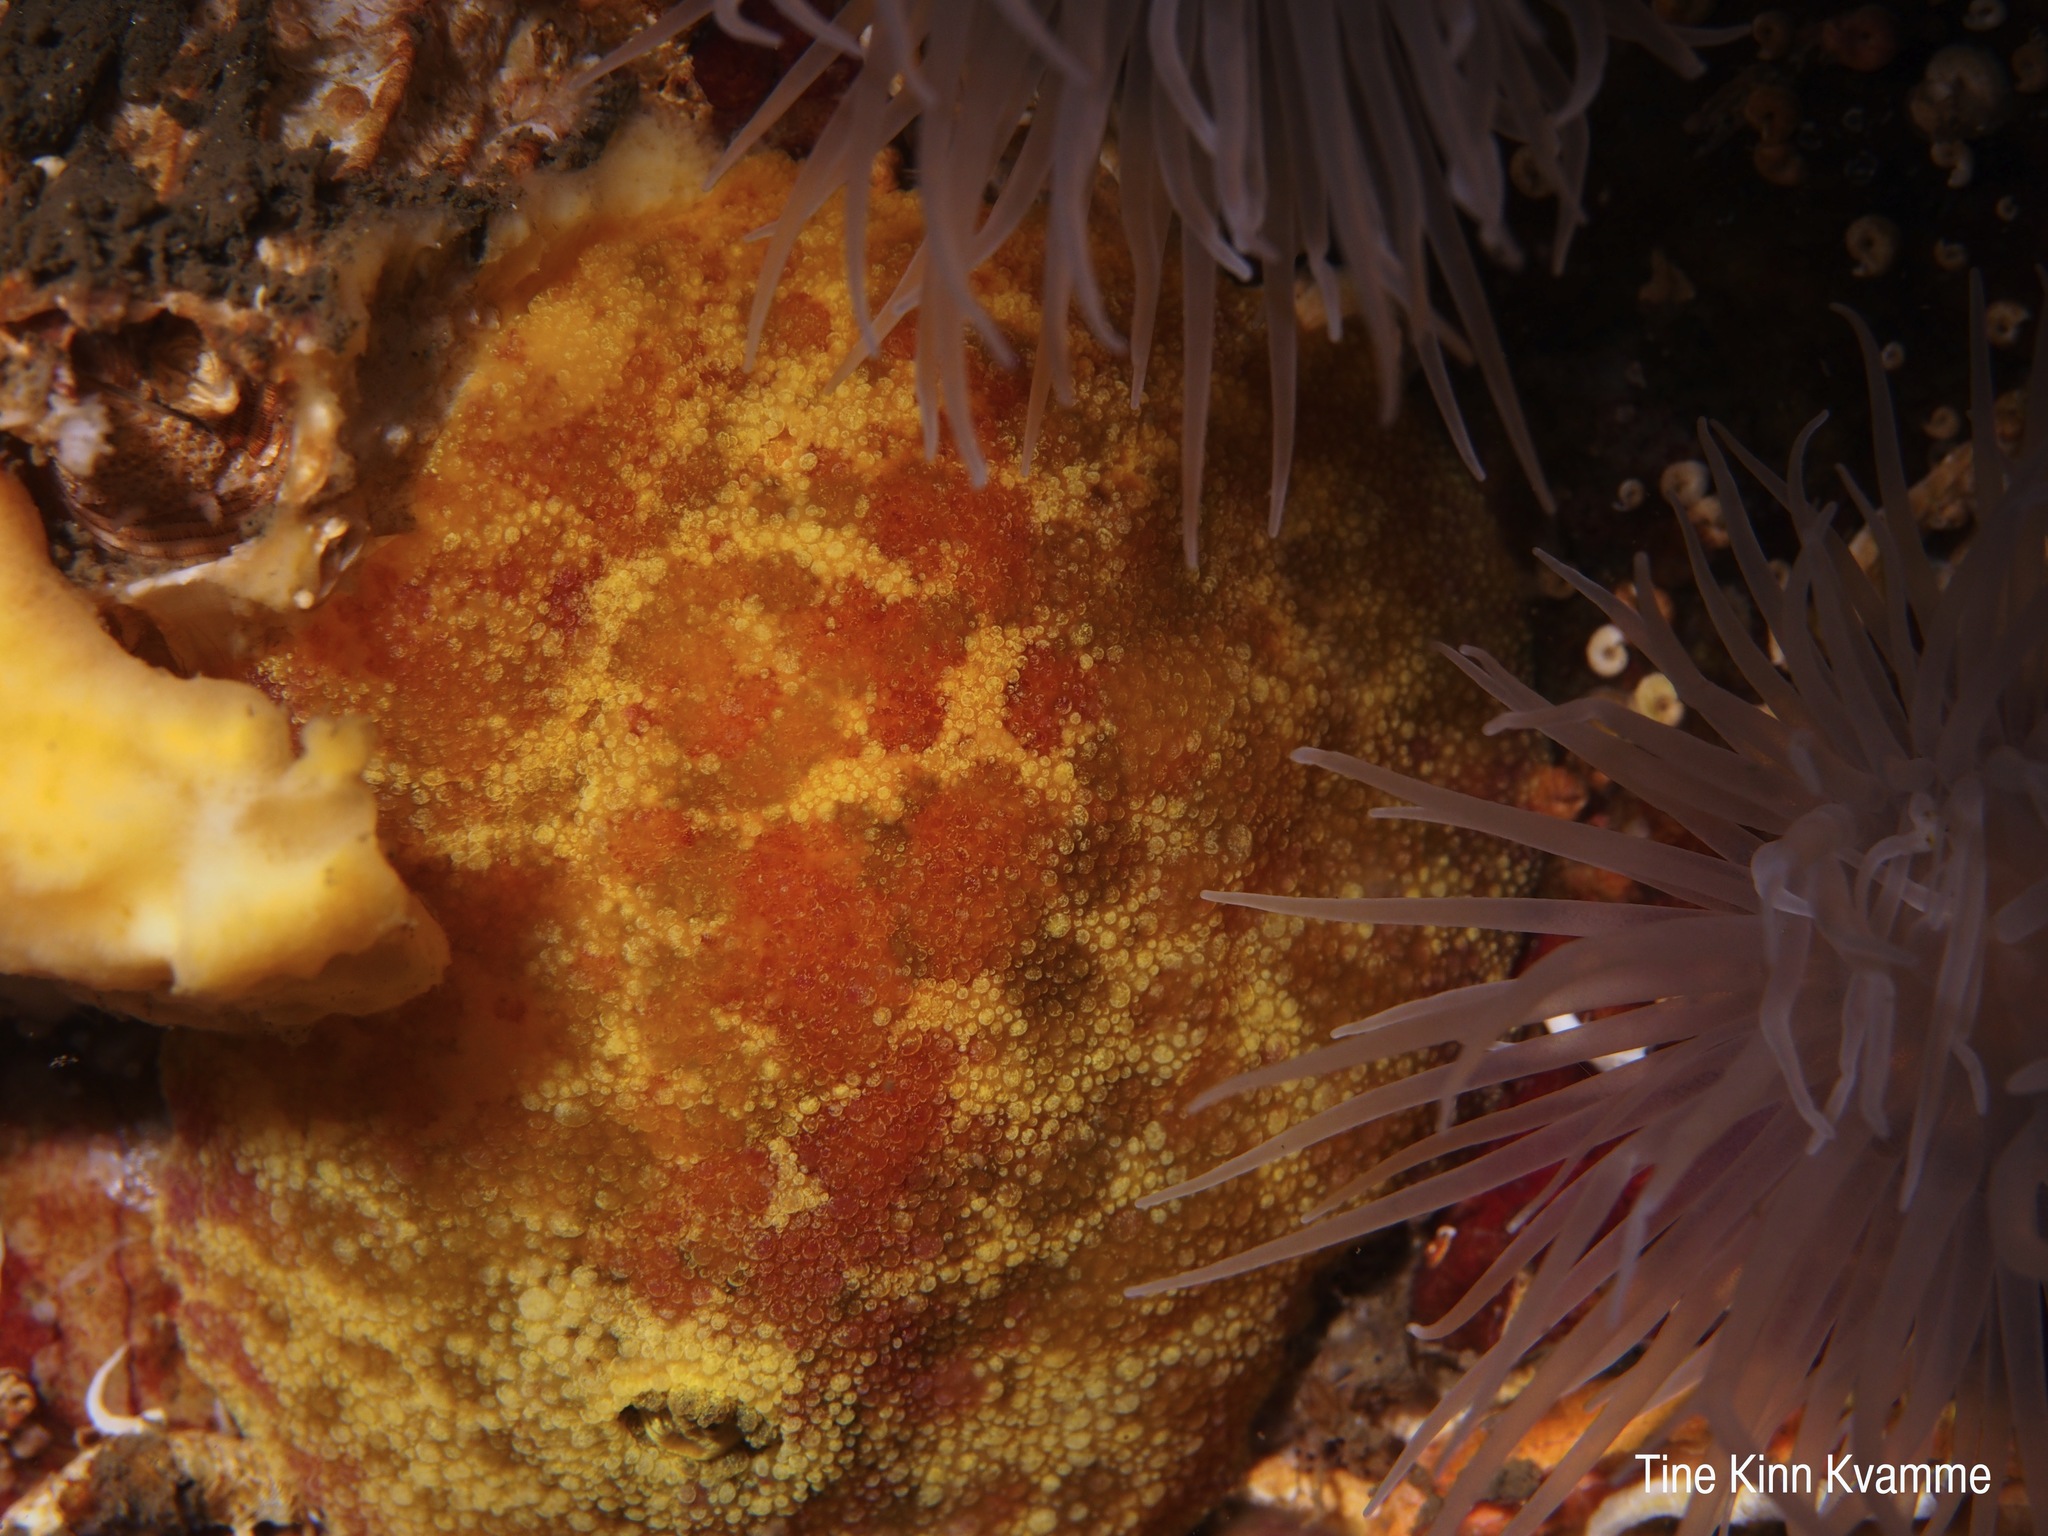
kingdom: Animalia
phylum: Mollusca
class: Gastropoda
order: Nudibranchia
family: Dorididae
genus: Doris
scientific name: Doris pseudoargus
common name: Sea lemon
